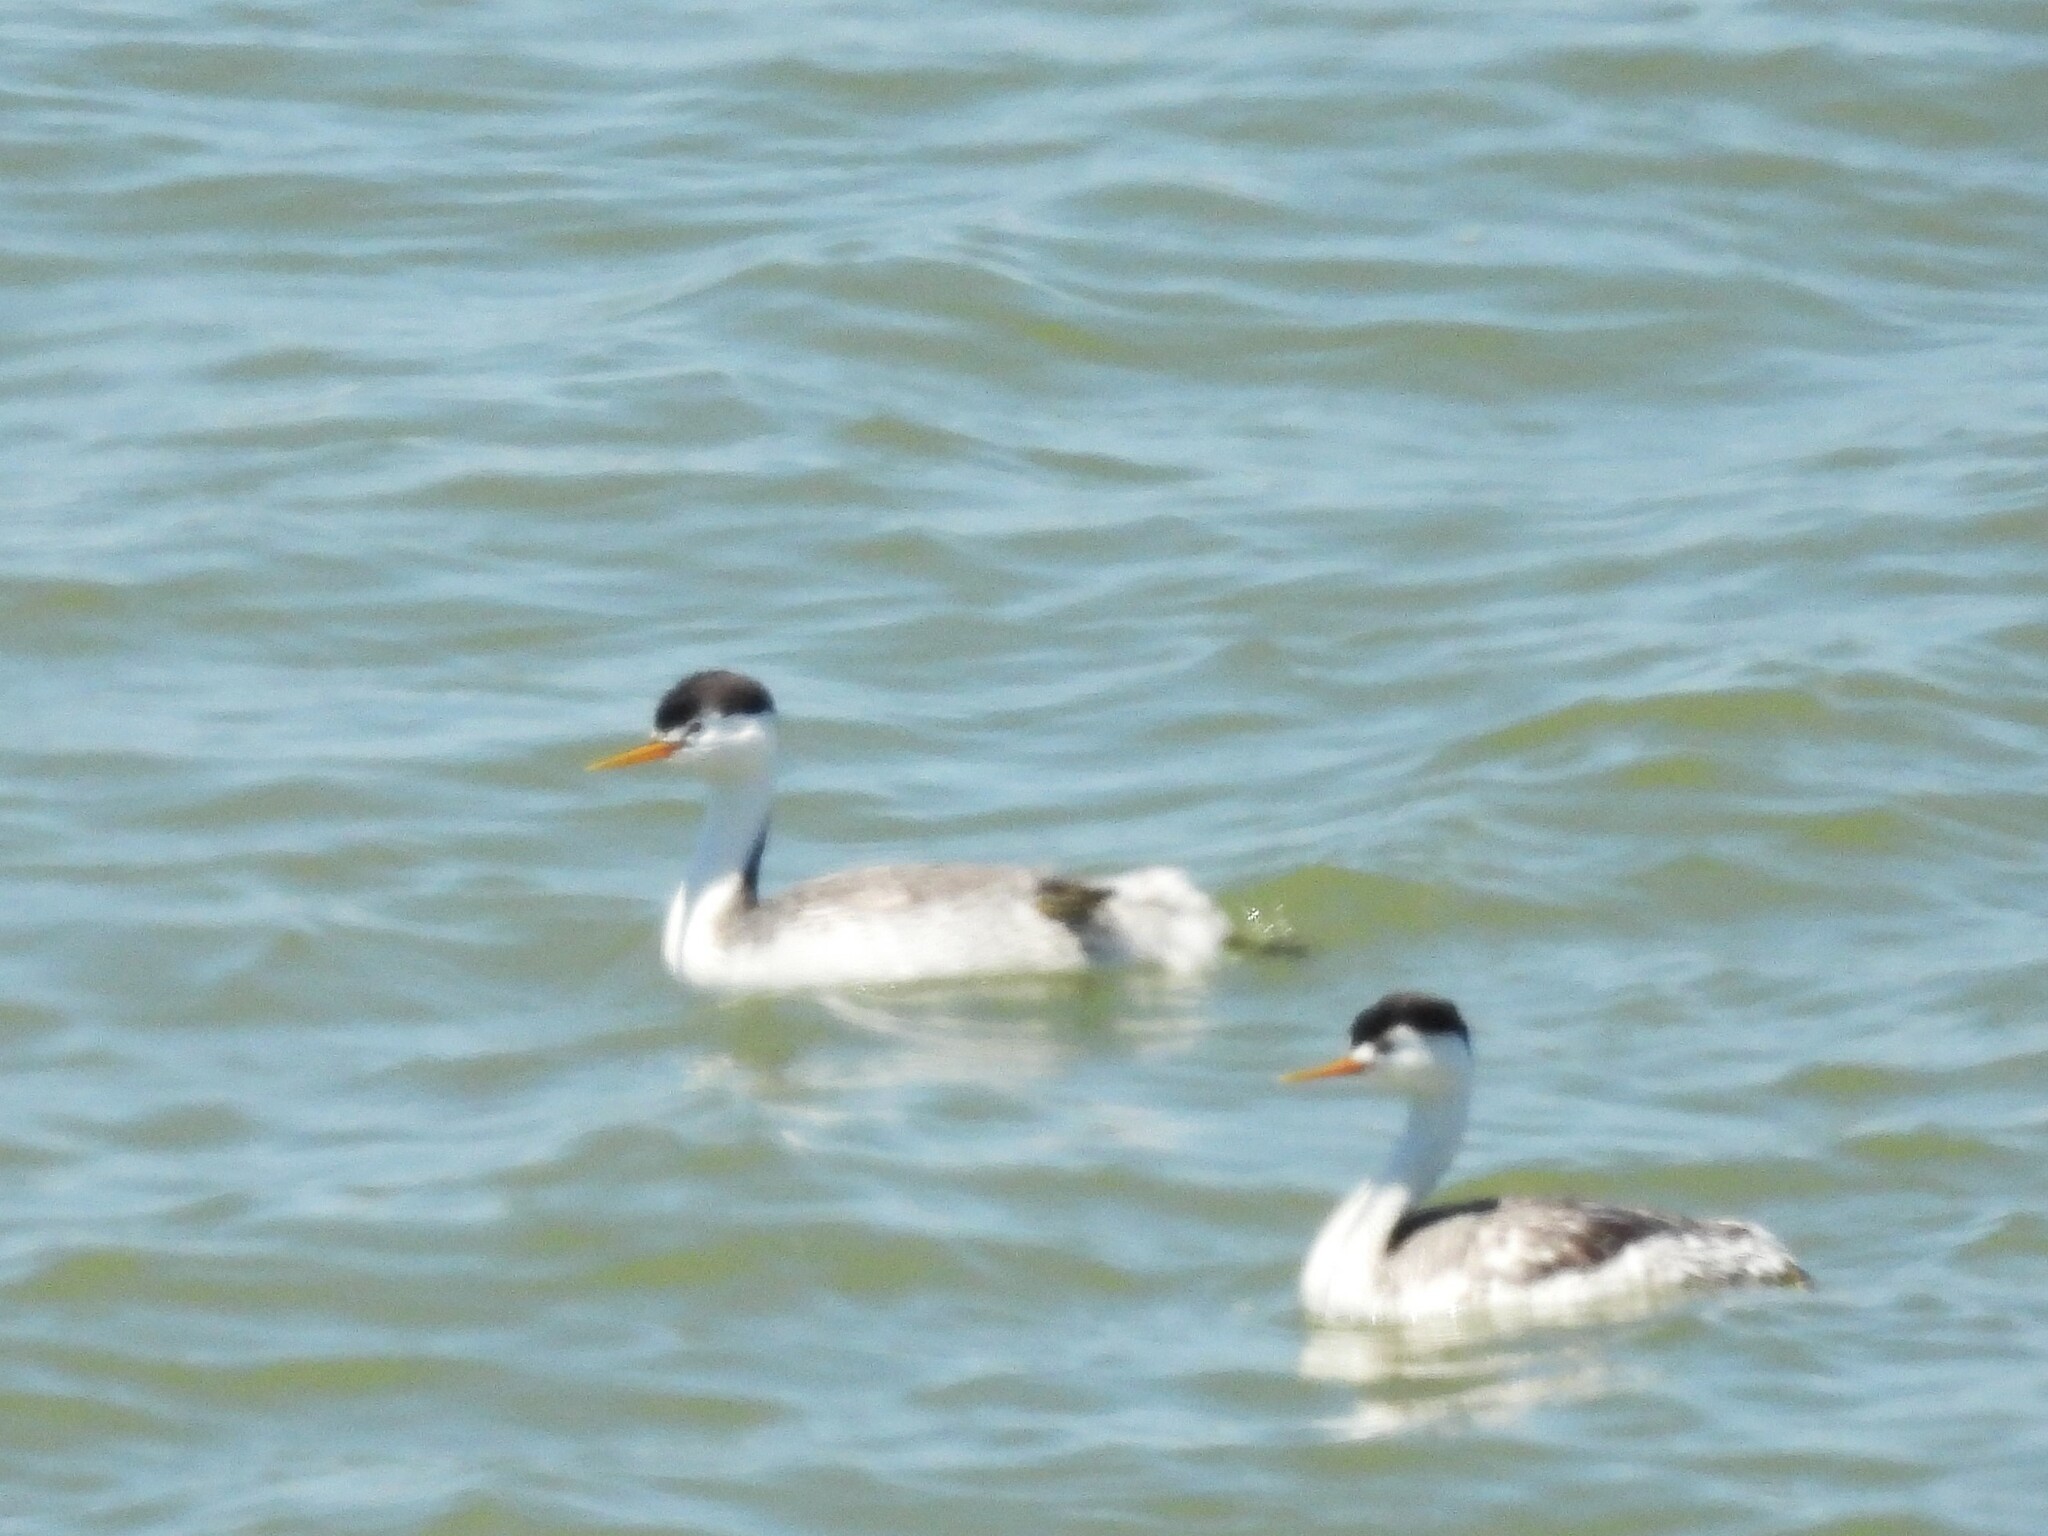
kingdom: Animalia
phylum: Chordata
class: Aves
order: Podicipediformes
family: Podicipedidae
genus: Aechmophorus
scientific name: Aechmophorus clarkii
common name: Clark's grebe
